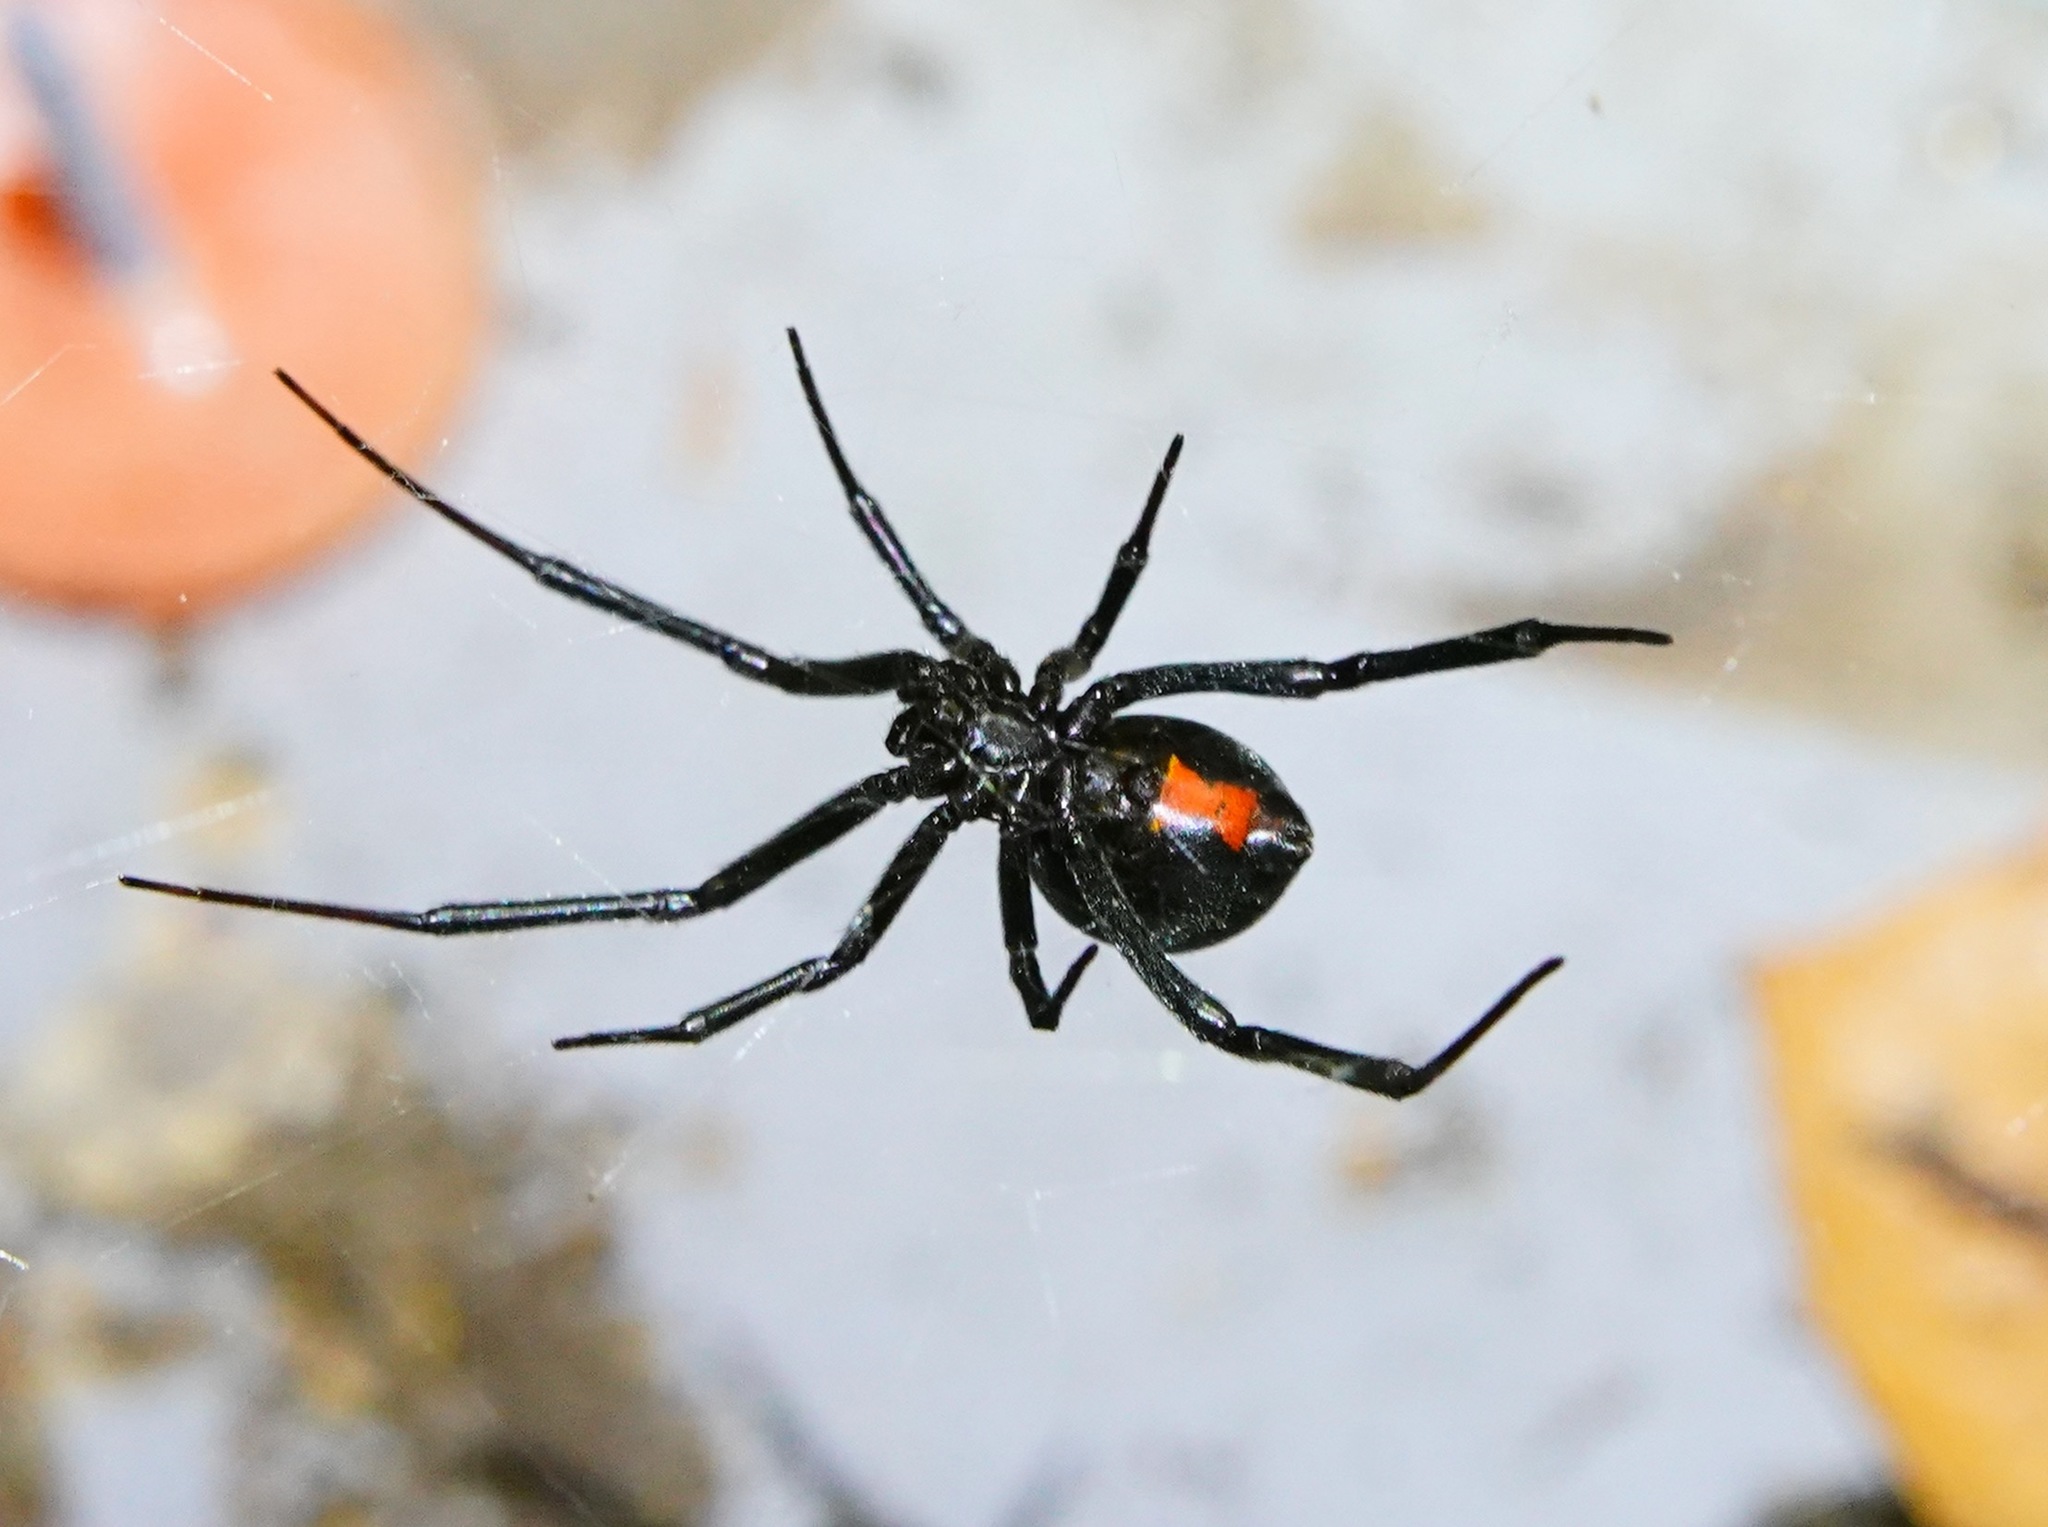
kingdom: Animalia
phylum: Arthropoda
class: Arachnida
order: Araneae
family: Theridiidae
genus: Latrodectus
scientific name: Latrodectus hesperus
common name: Western black widow
